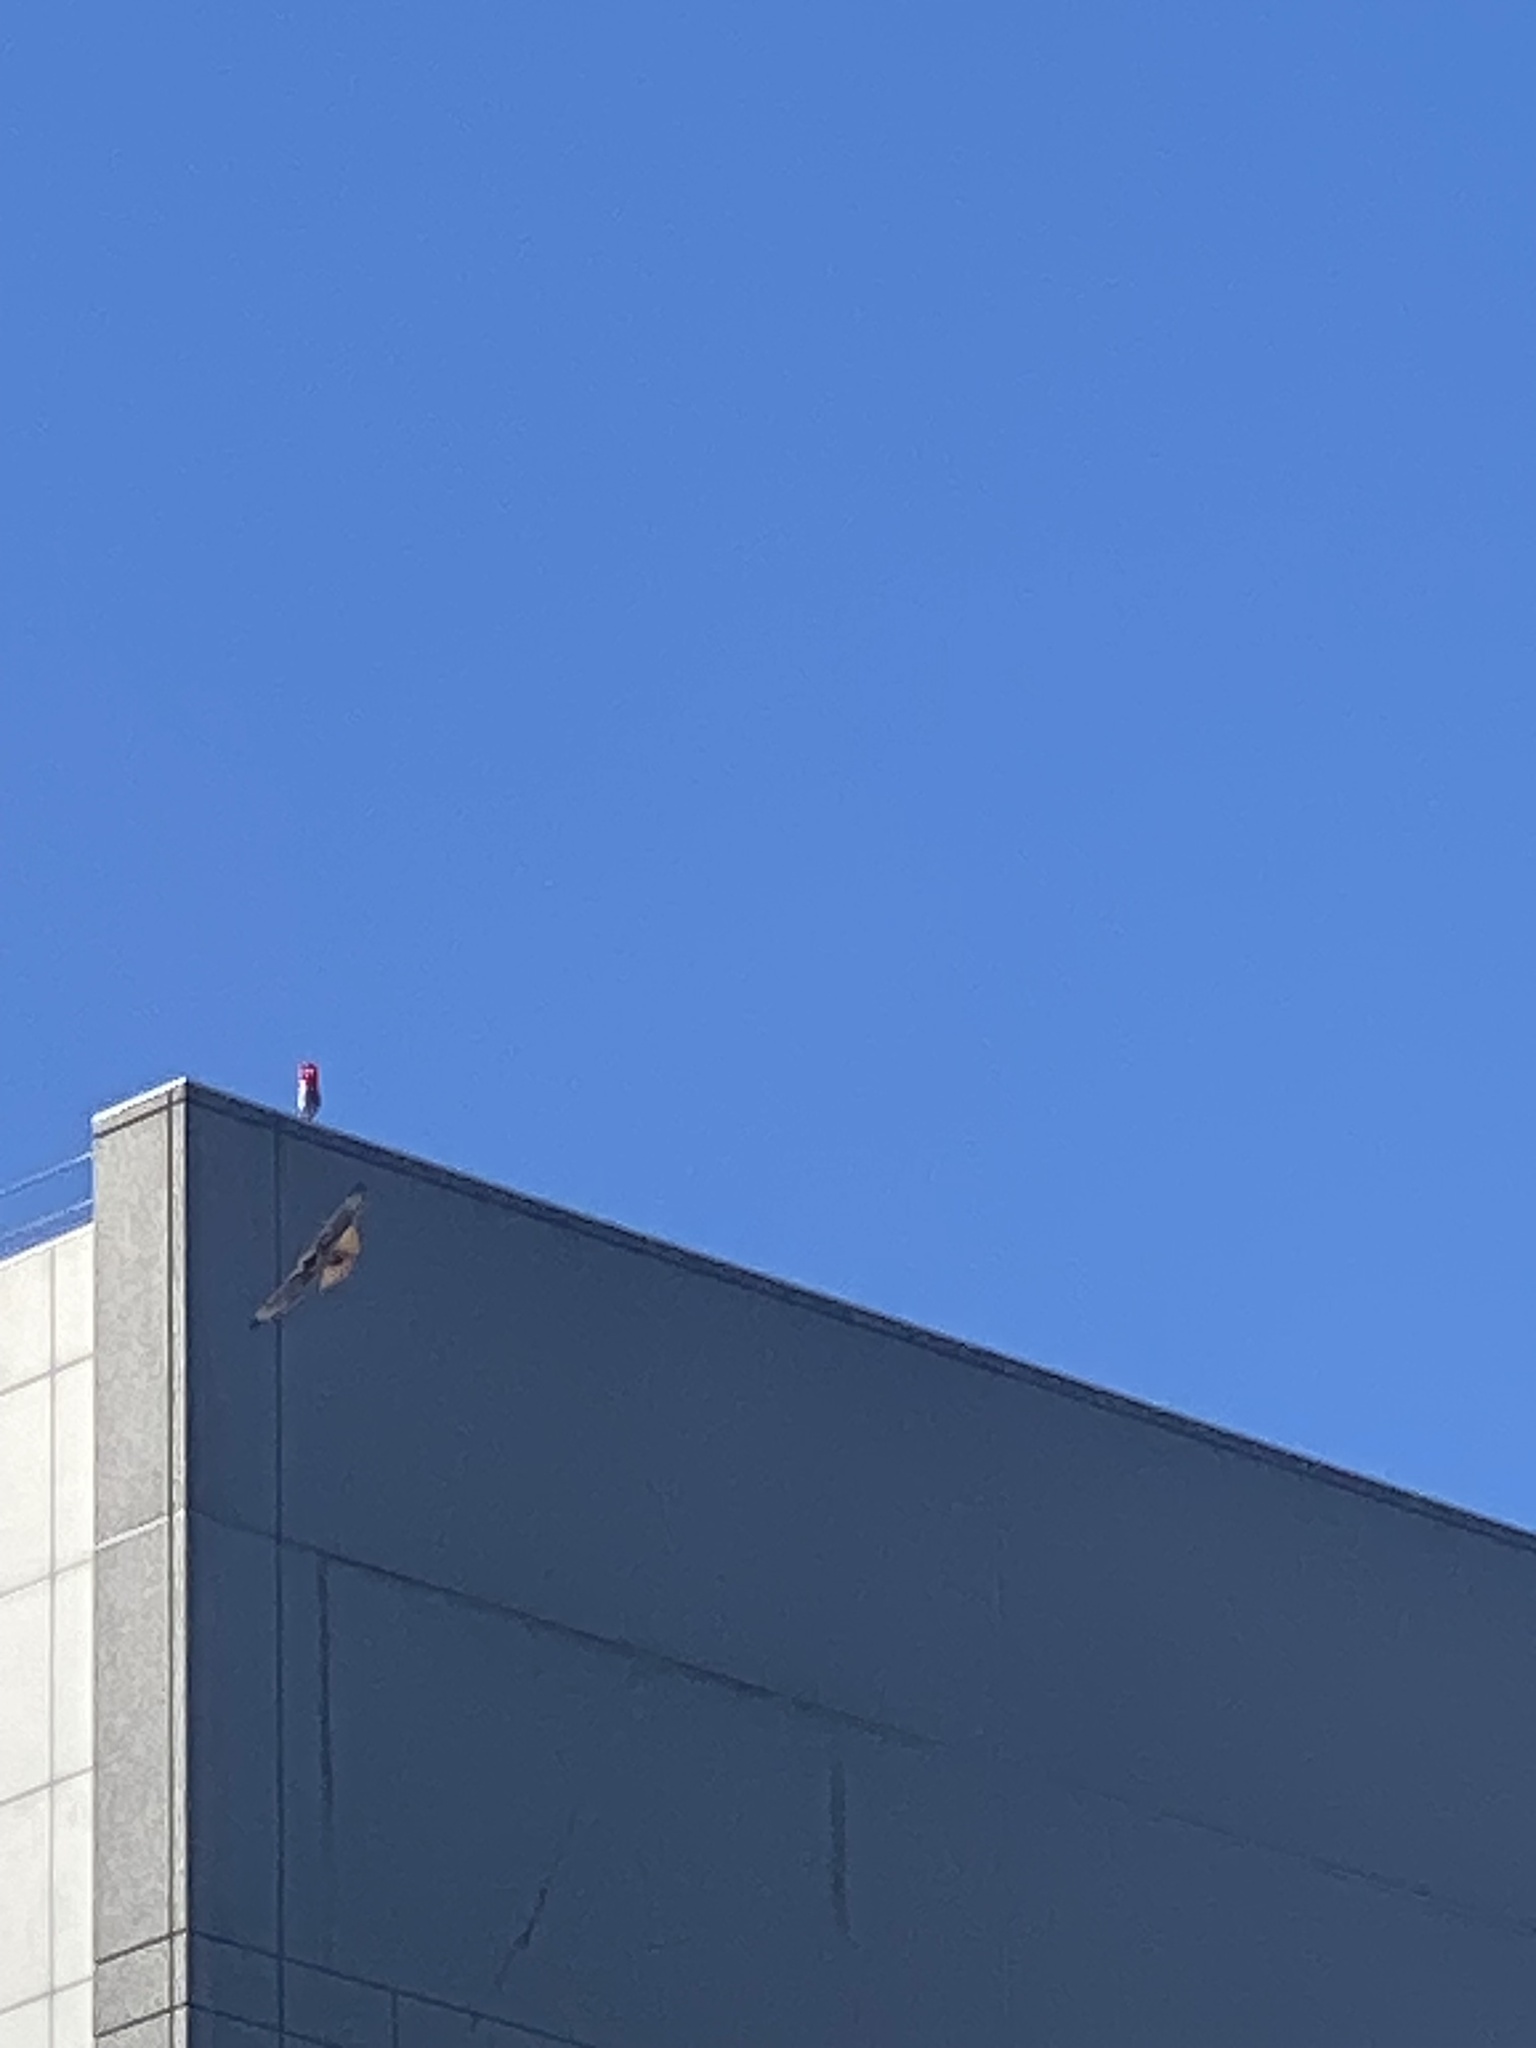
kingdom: Animalia
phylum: Chordata
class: Aves
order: Accipitriformes
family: Accipitridae
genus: Buteo
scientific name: Buteo jamaicensis
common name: Red-tailed hawk
